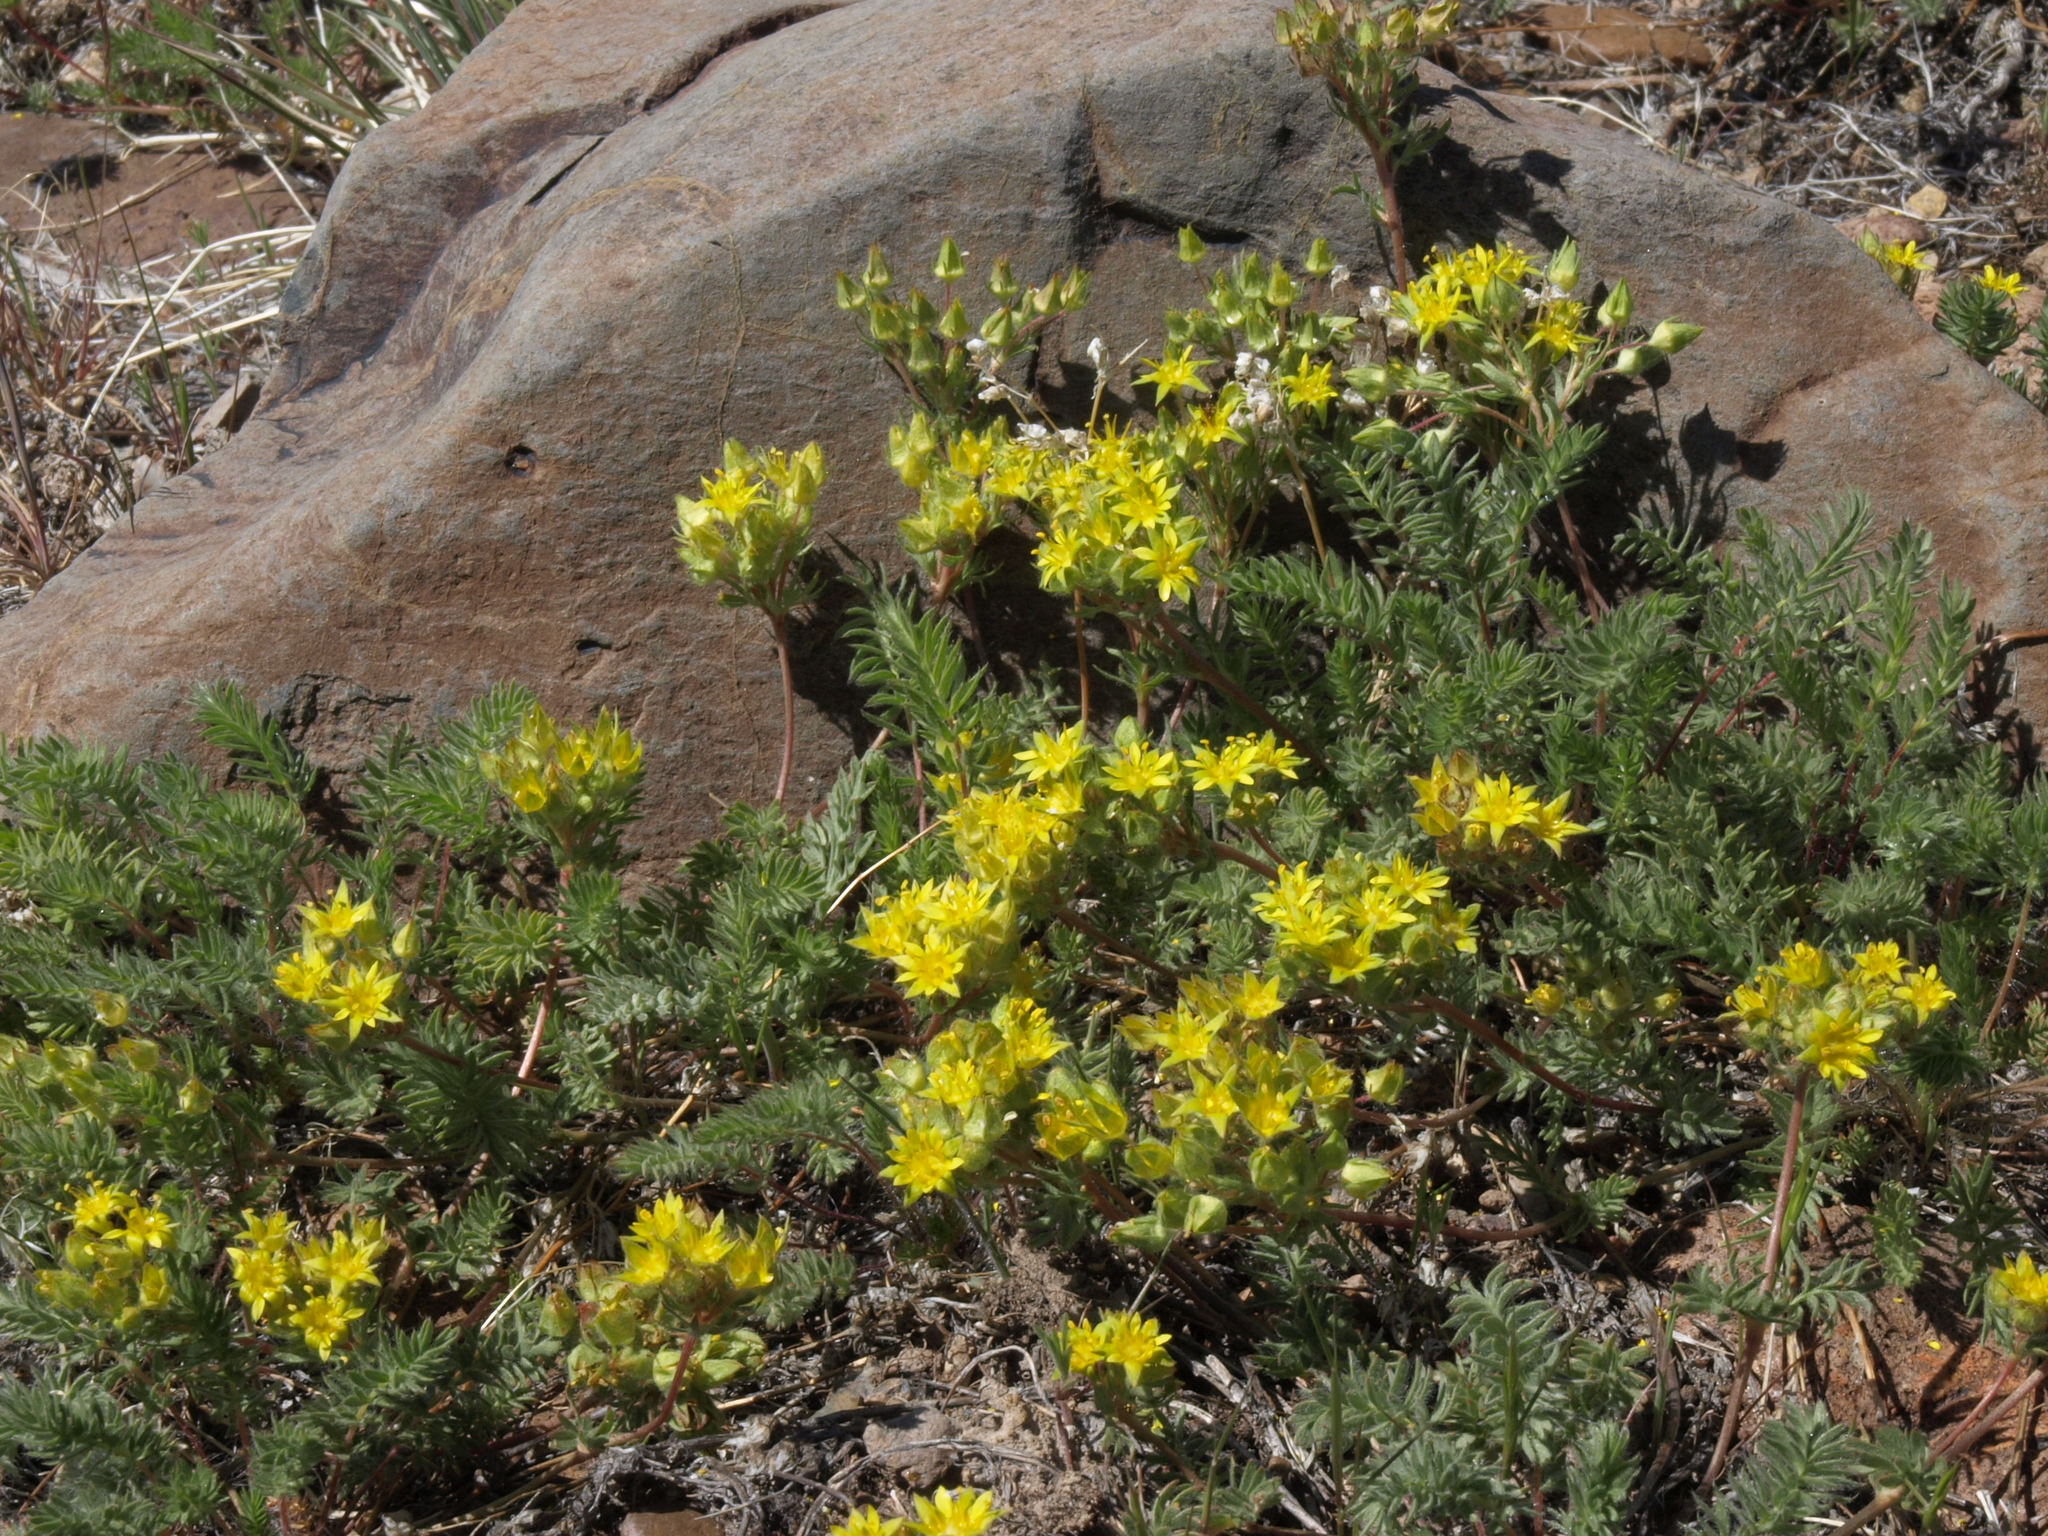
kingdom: Plantae
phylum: Tracheophyta
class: Magnoliopsida
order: Rosales
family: Rosaceae
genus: Potentilla
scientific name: Potentilla webberi
